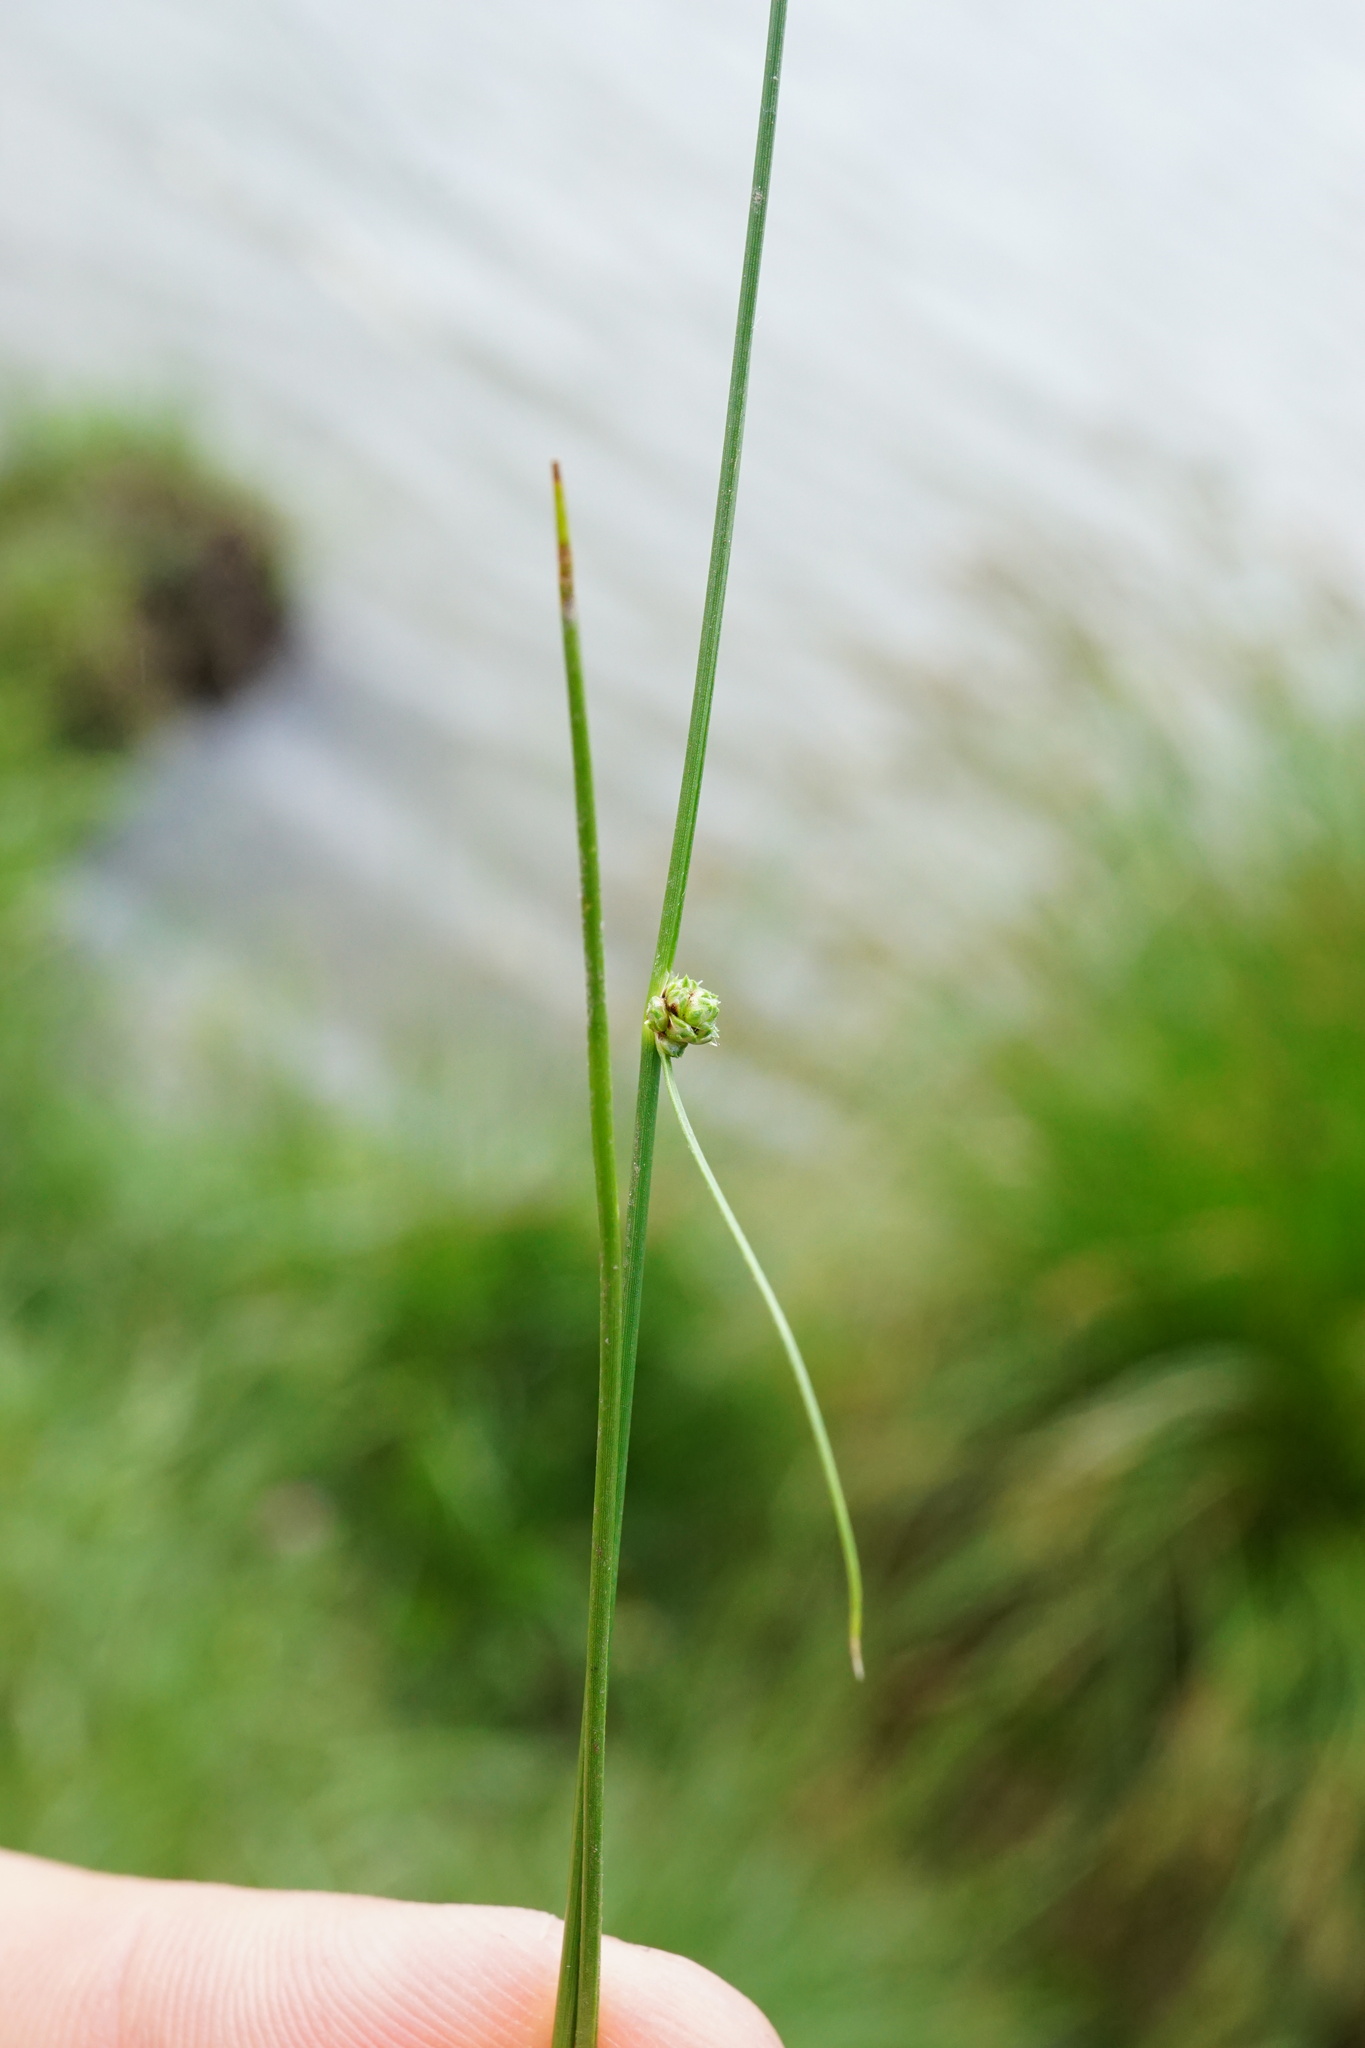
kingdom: Plantae
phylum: Tracheophyta
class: Liliopsida
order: Poales
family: Cyperaceae
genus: Scirpoides
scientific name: Scirpoides holoschoenus
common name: Round-headed club-rush
